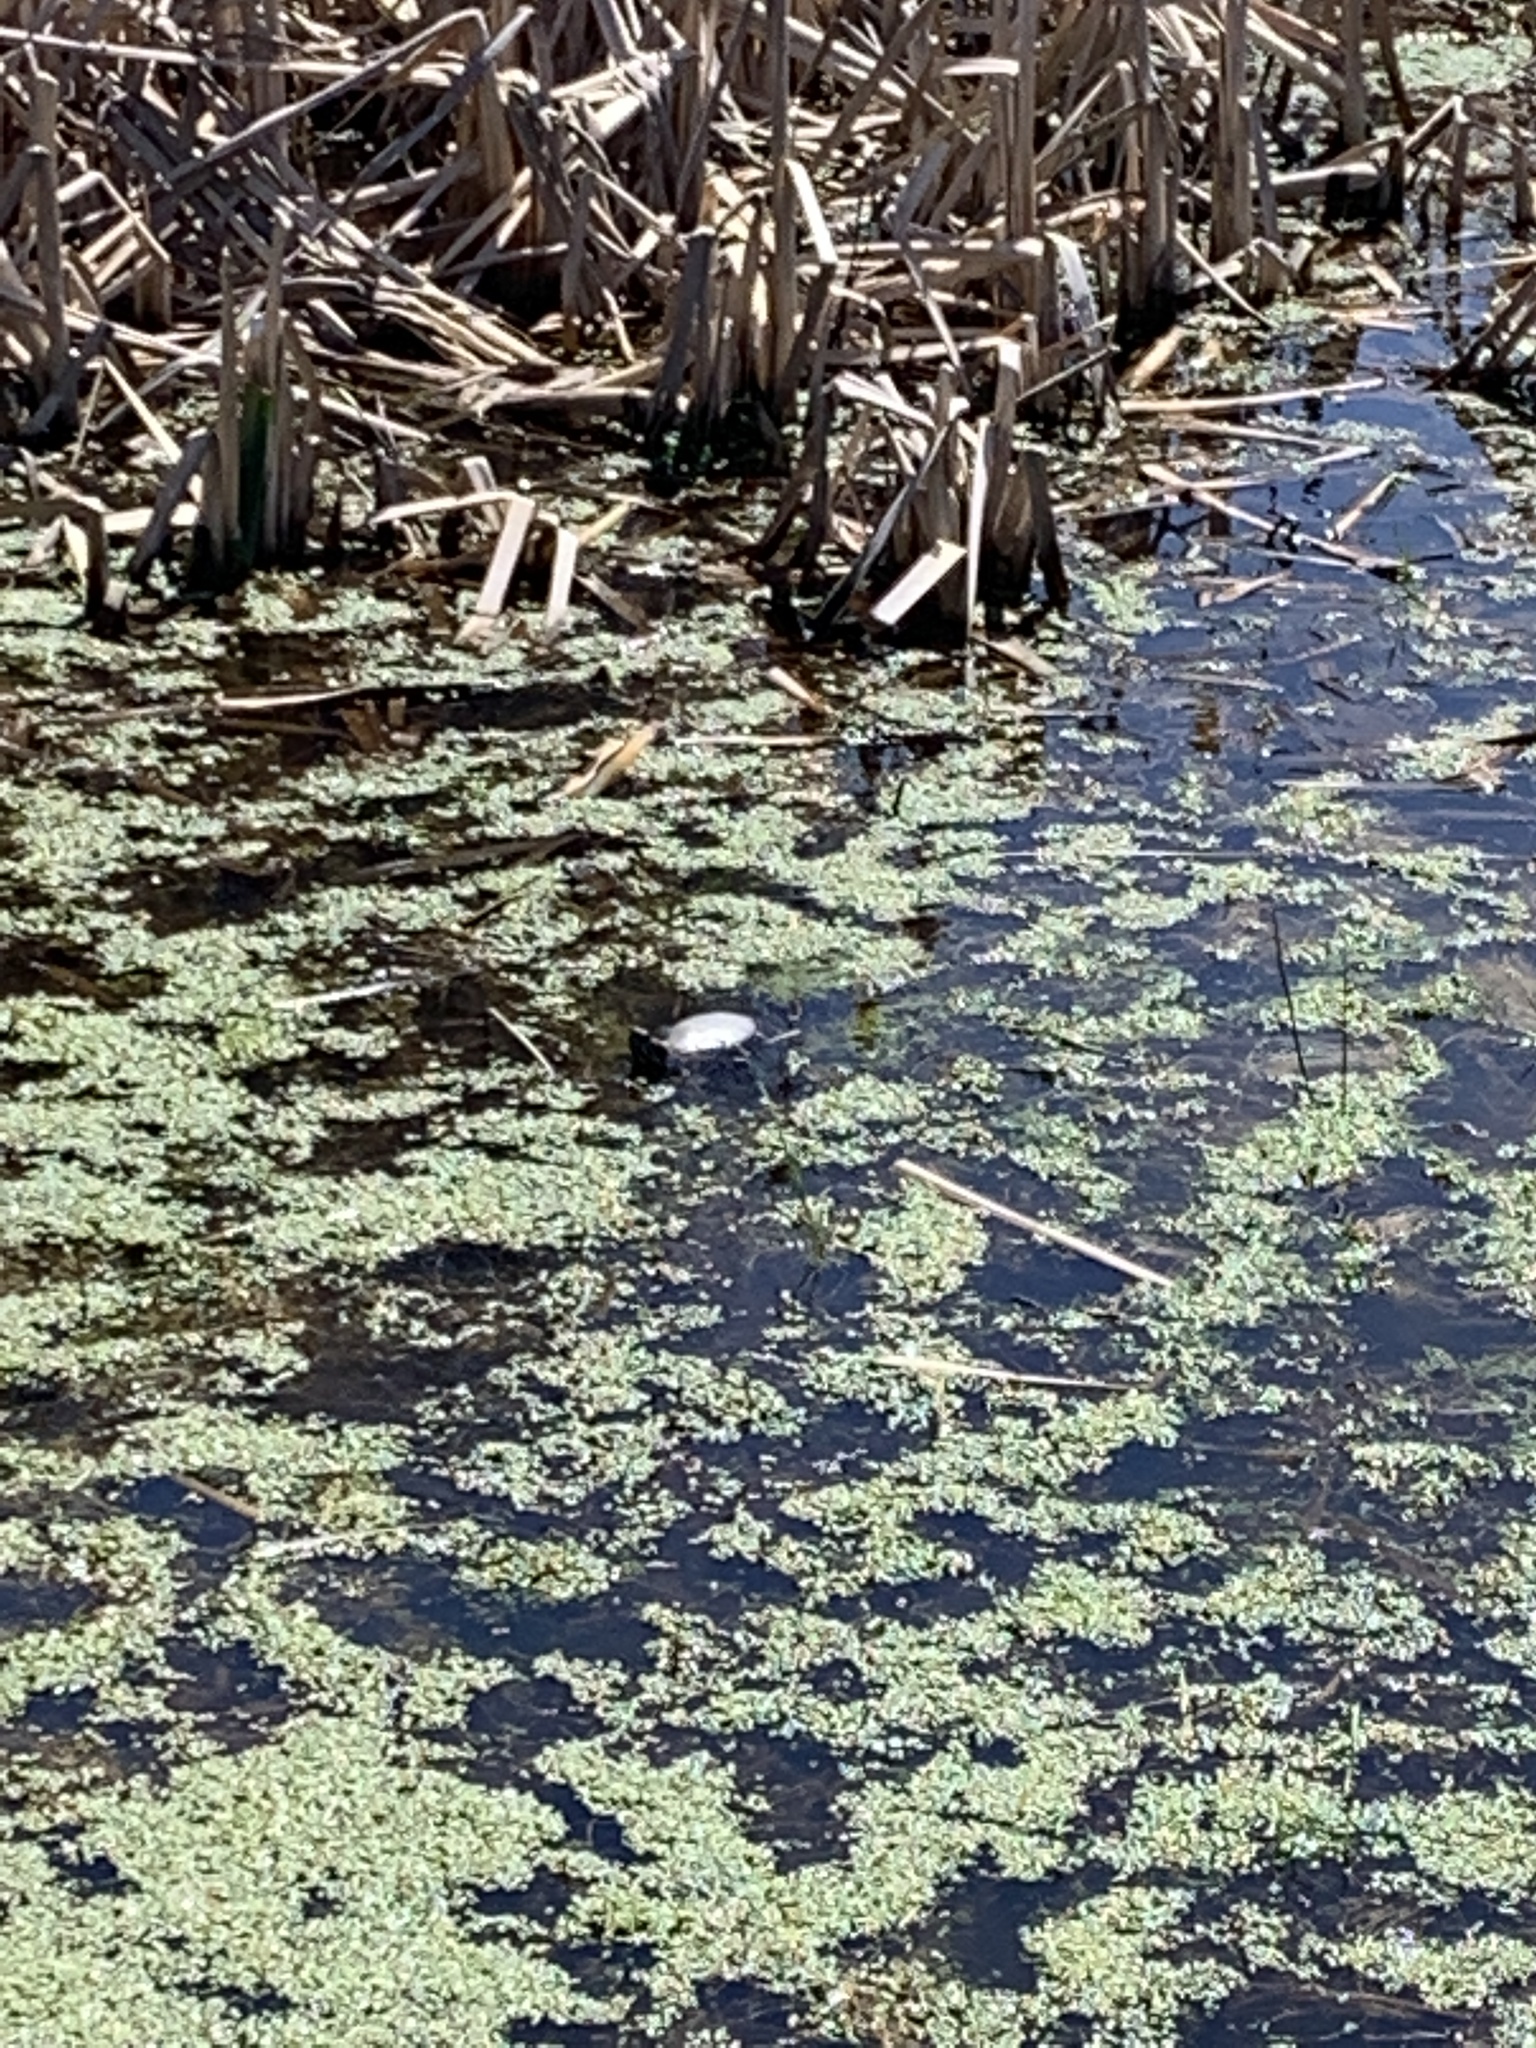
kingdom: Animalia
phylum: Chordata
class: Testudines
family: Emydidae
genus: Chrysemys
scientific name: Chrysemys picta
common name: Painted turtle
